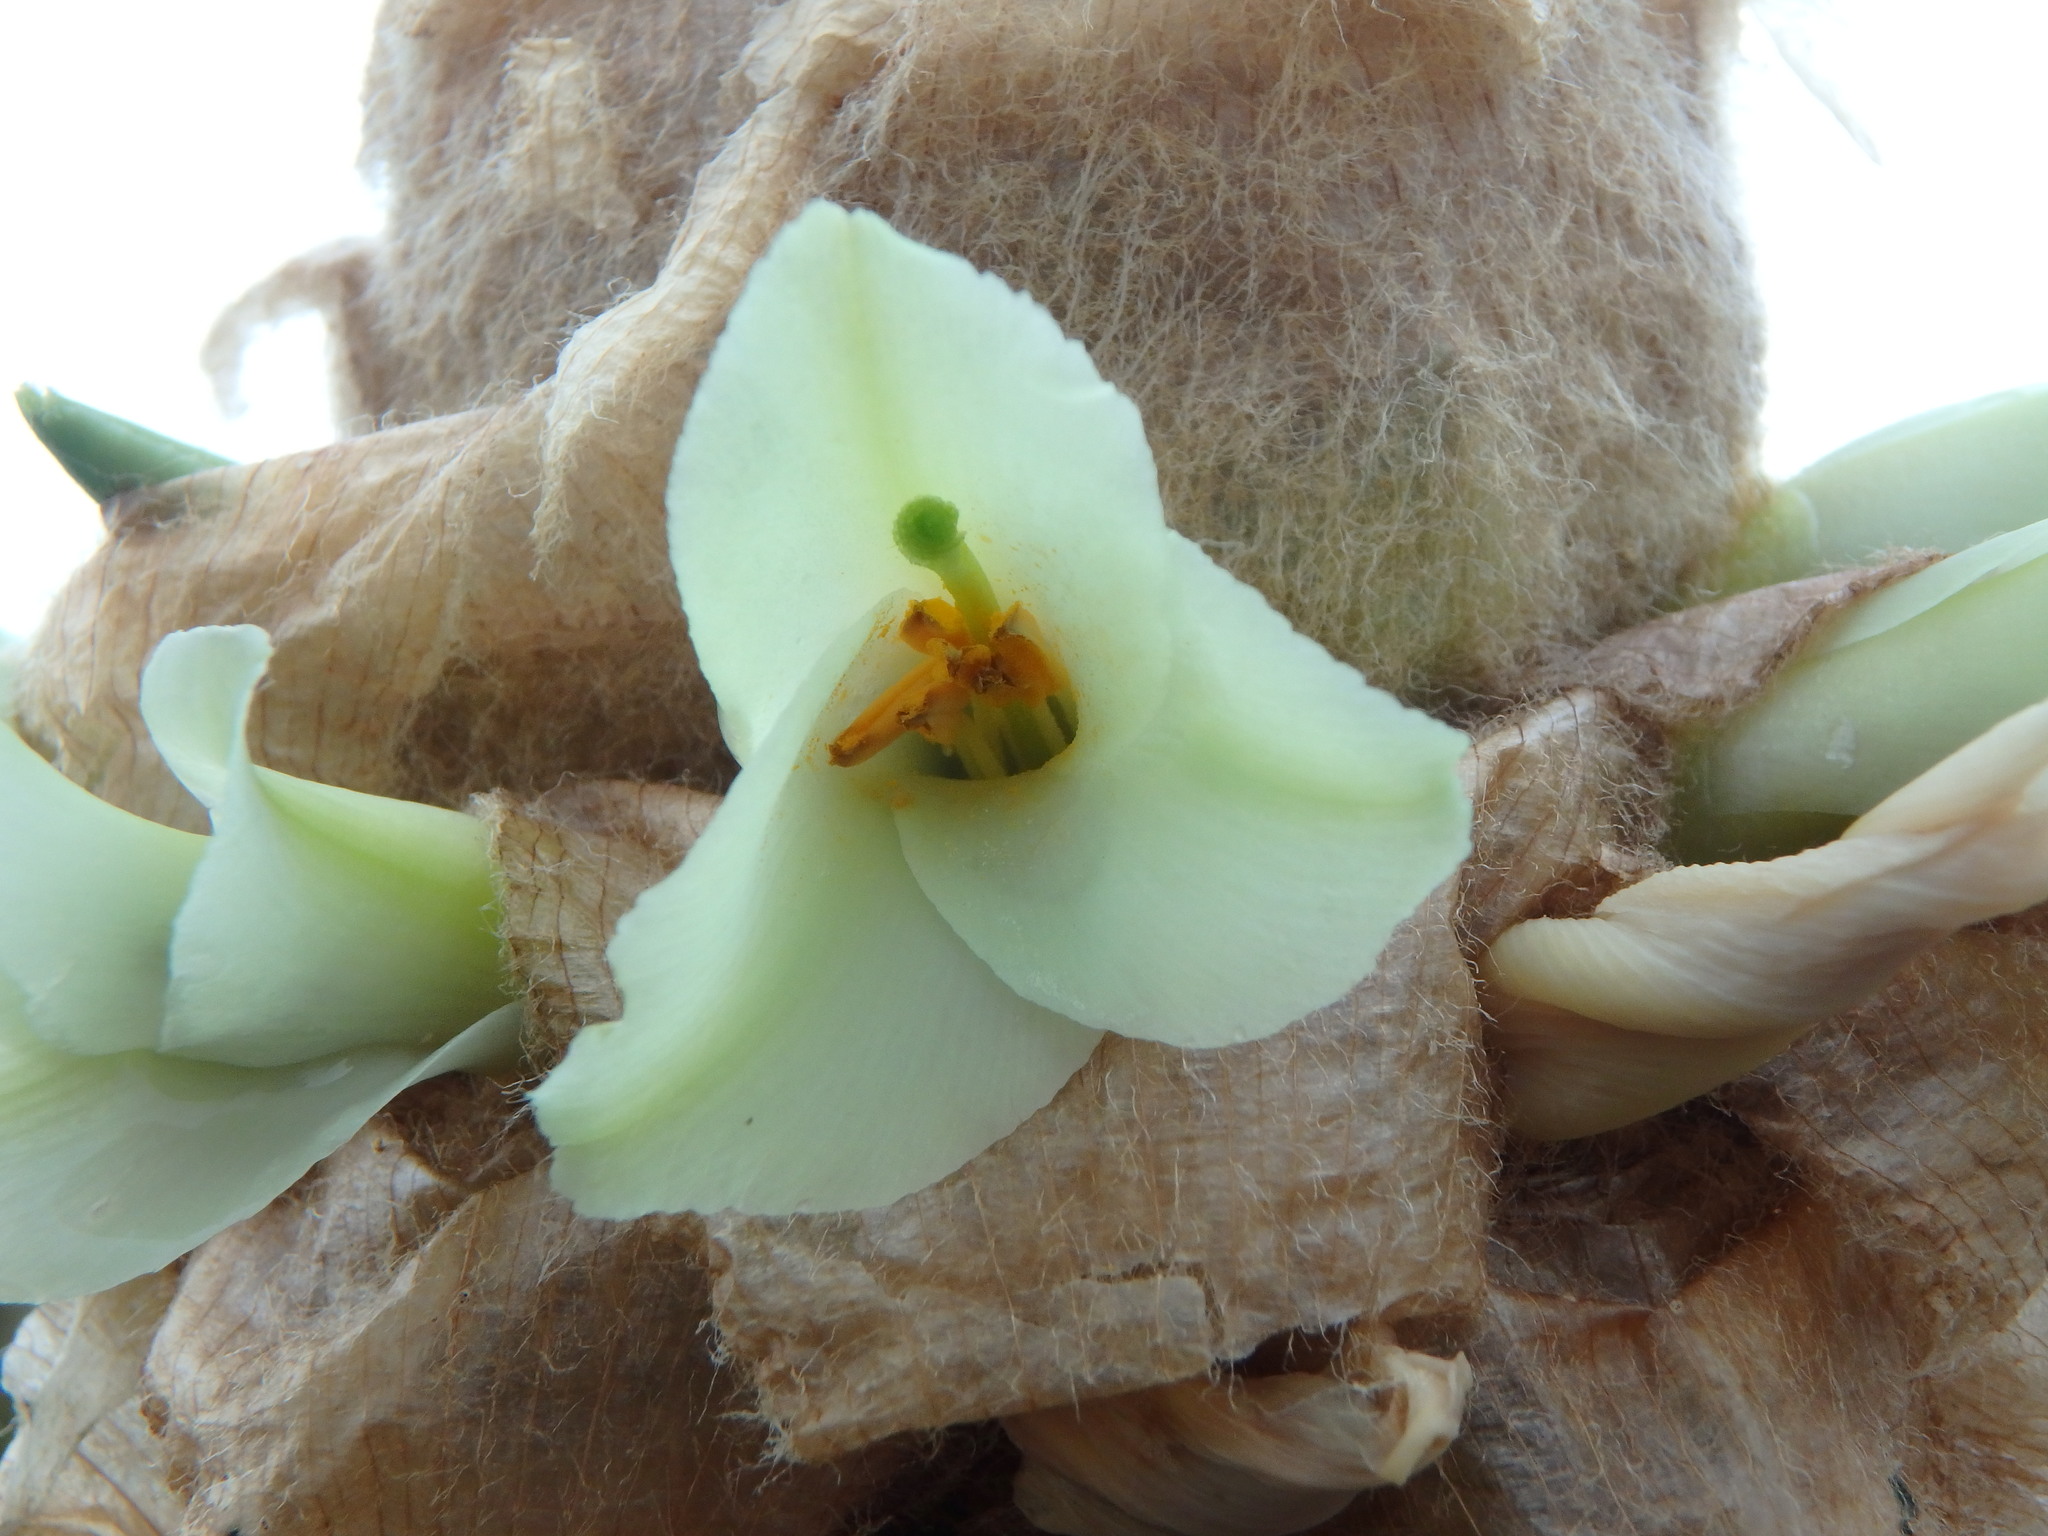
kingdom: Plantae
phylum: Tracheophyta
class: Liliopsida
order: Poales
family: Bromeliaceae
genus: Puya
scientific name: Puya trianae
